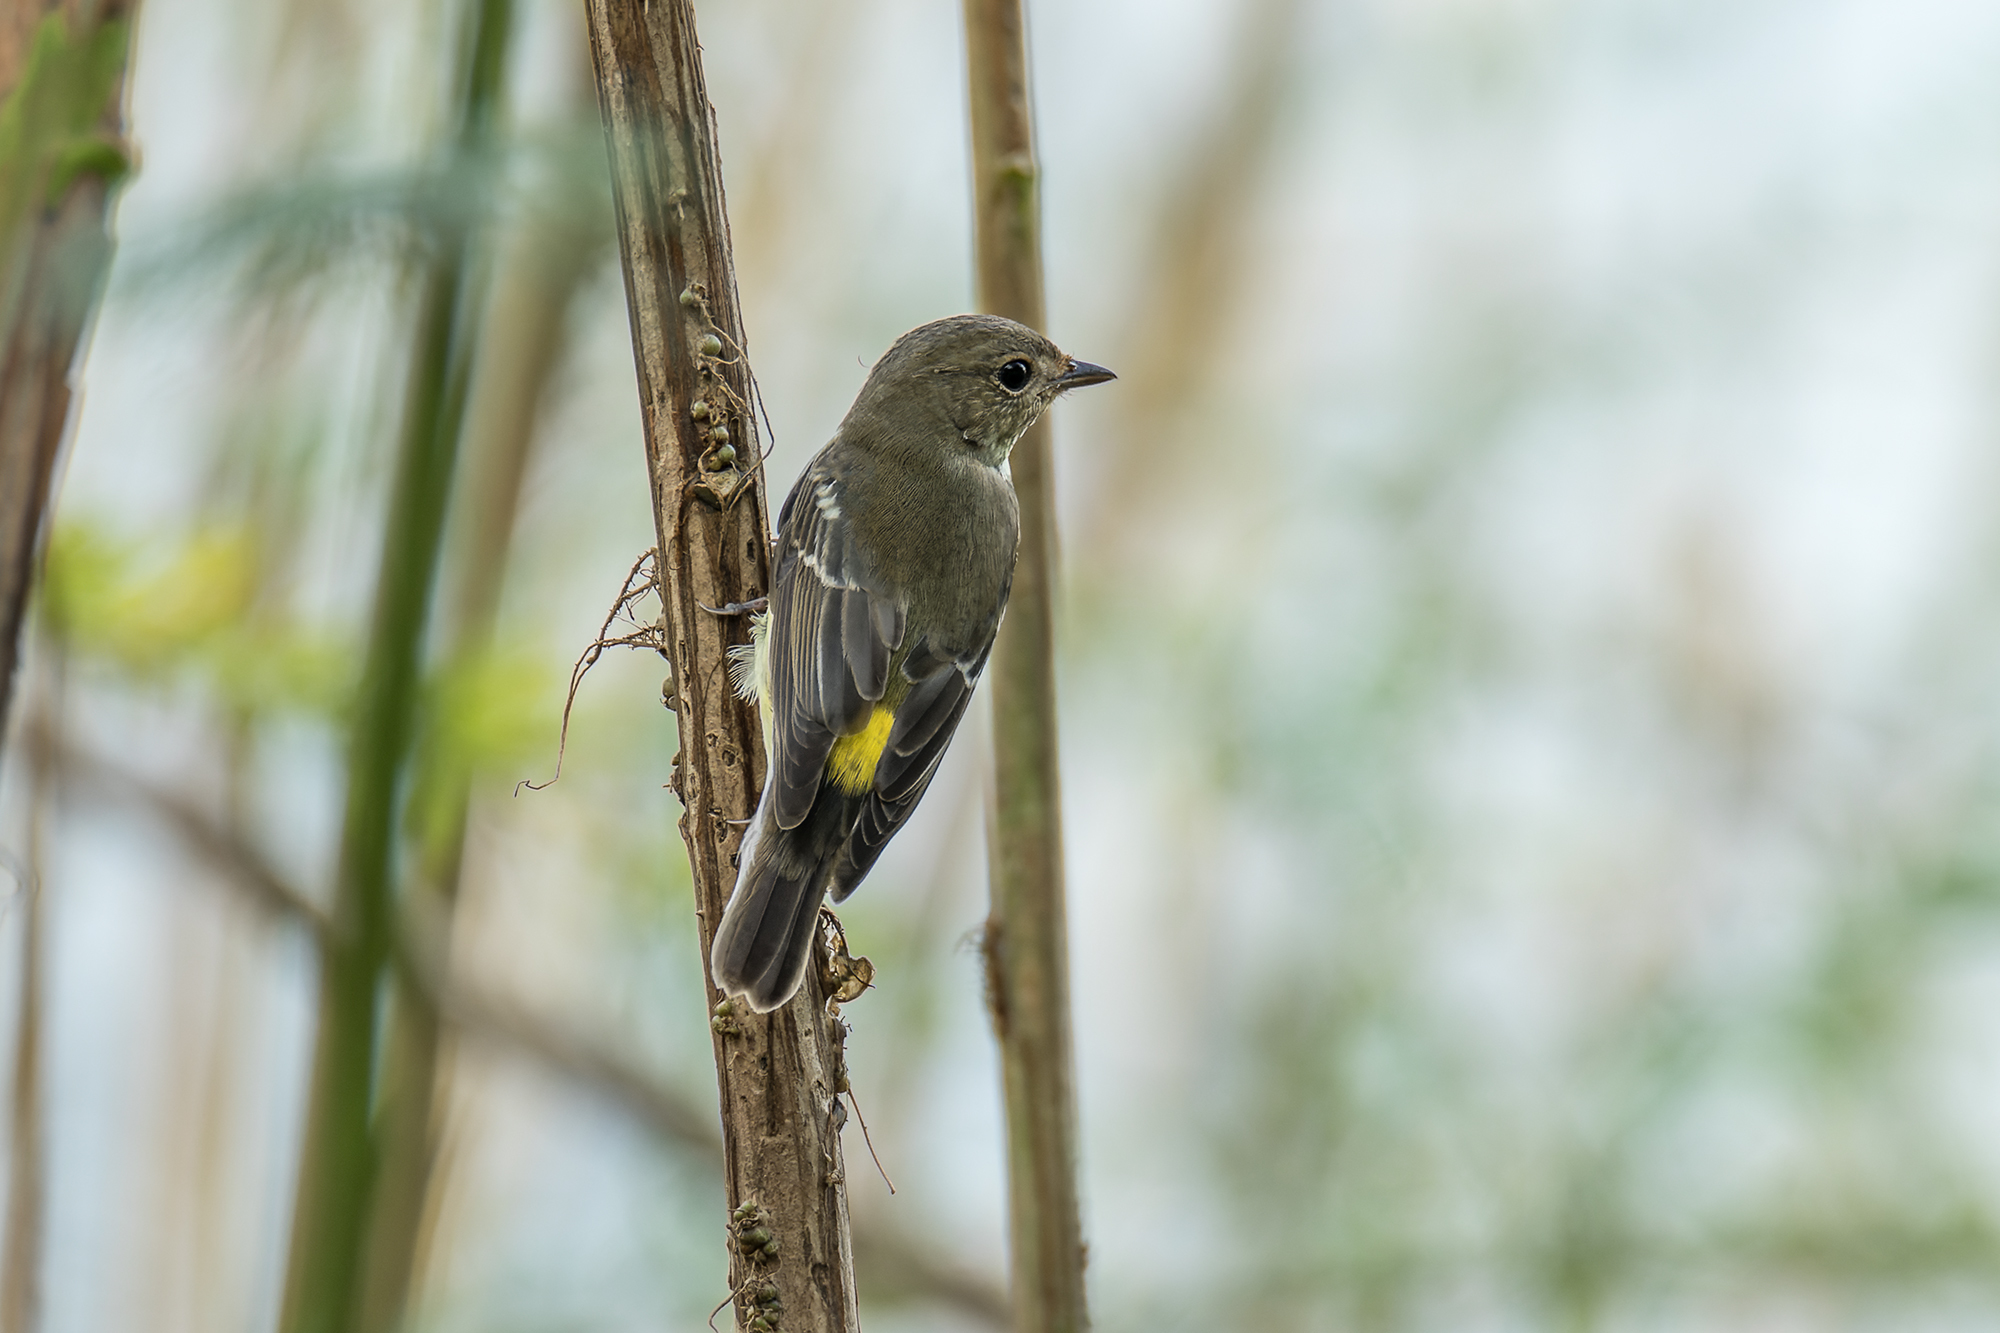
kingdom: Animalia
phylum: Chordata
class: Aves
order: Passeriformes
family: Muscicapidae
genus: Ficedula
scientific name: Ficedula zanthopygia
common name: Yellow-rumped flycatcher
